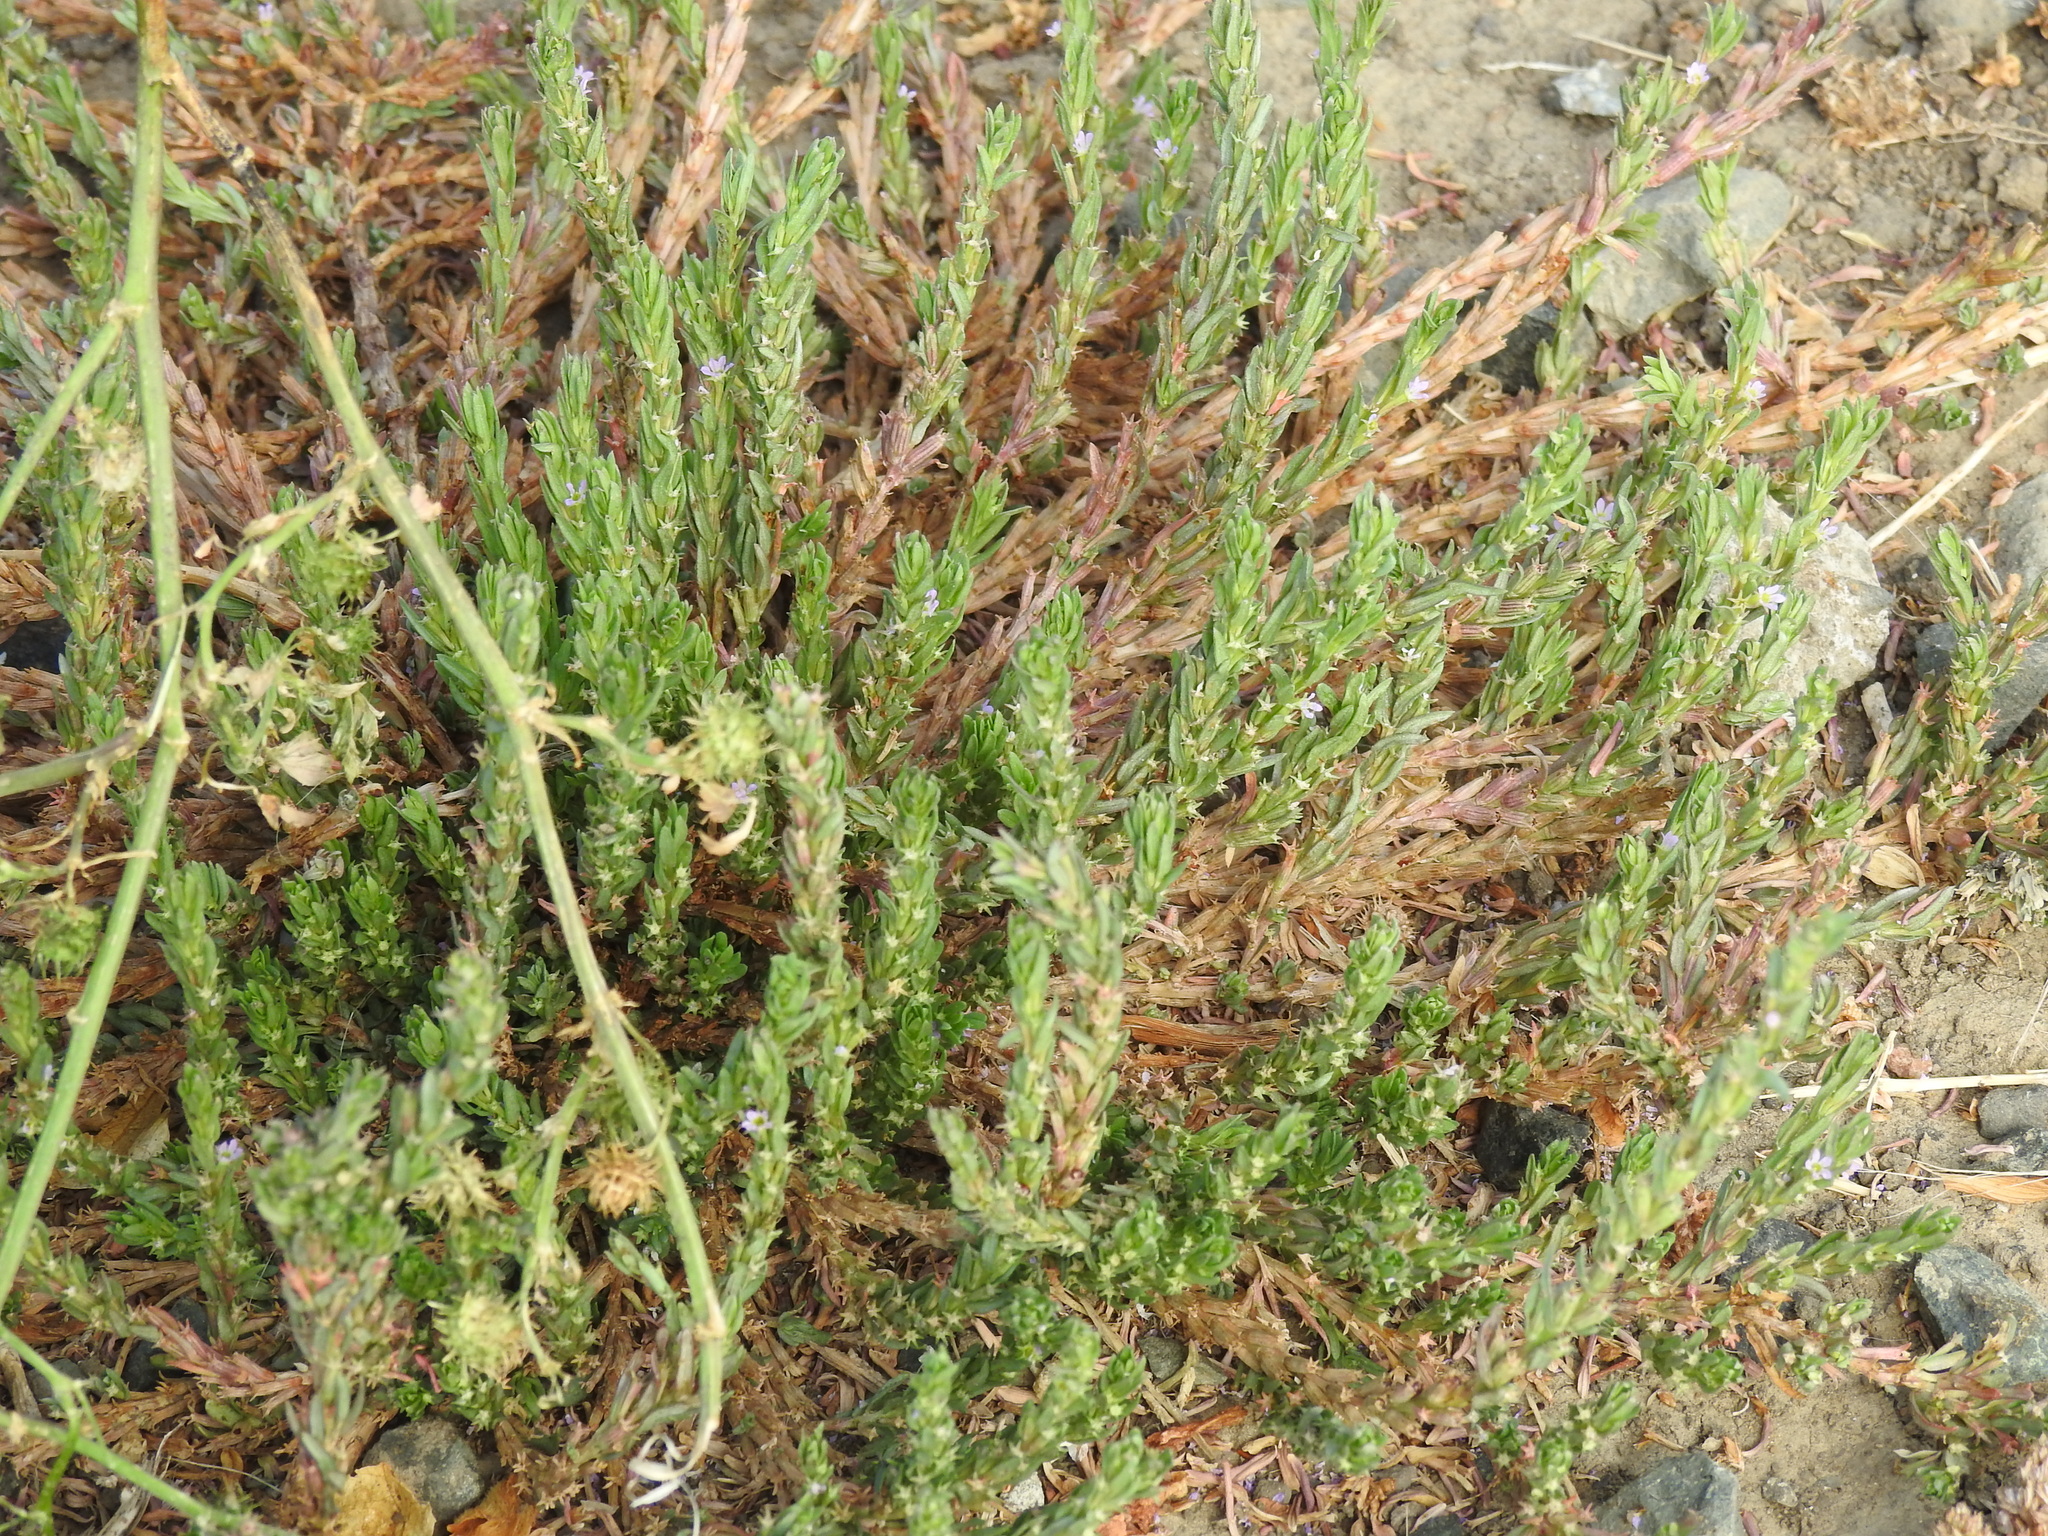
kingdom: Plantae
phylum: Tracheophyta
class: Magnoliopsida
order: Myrtales
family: Lythraceae
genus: Lythrum
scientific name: Lythrum hyssopifolia
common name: Grass-poly
